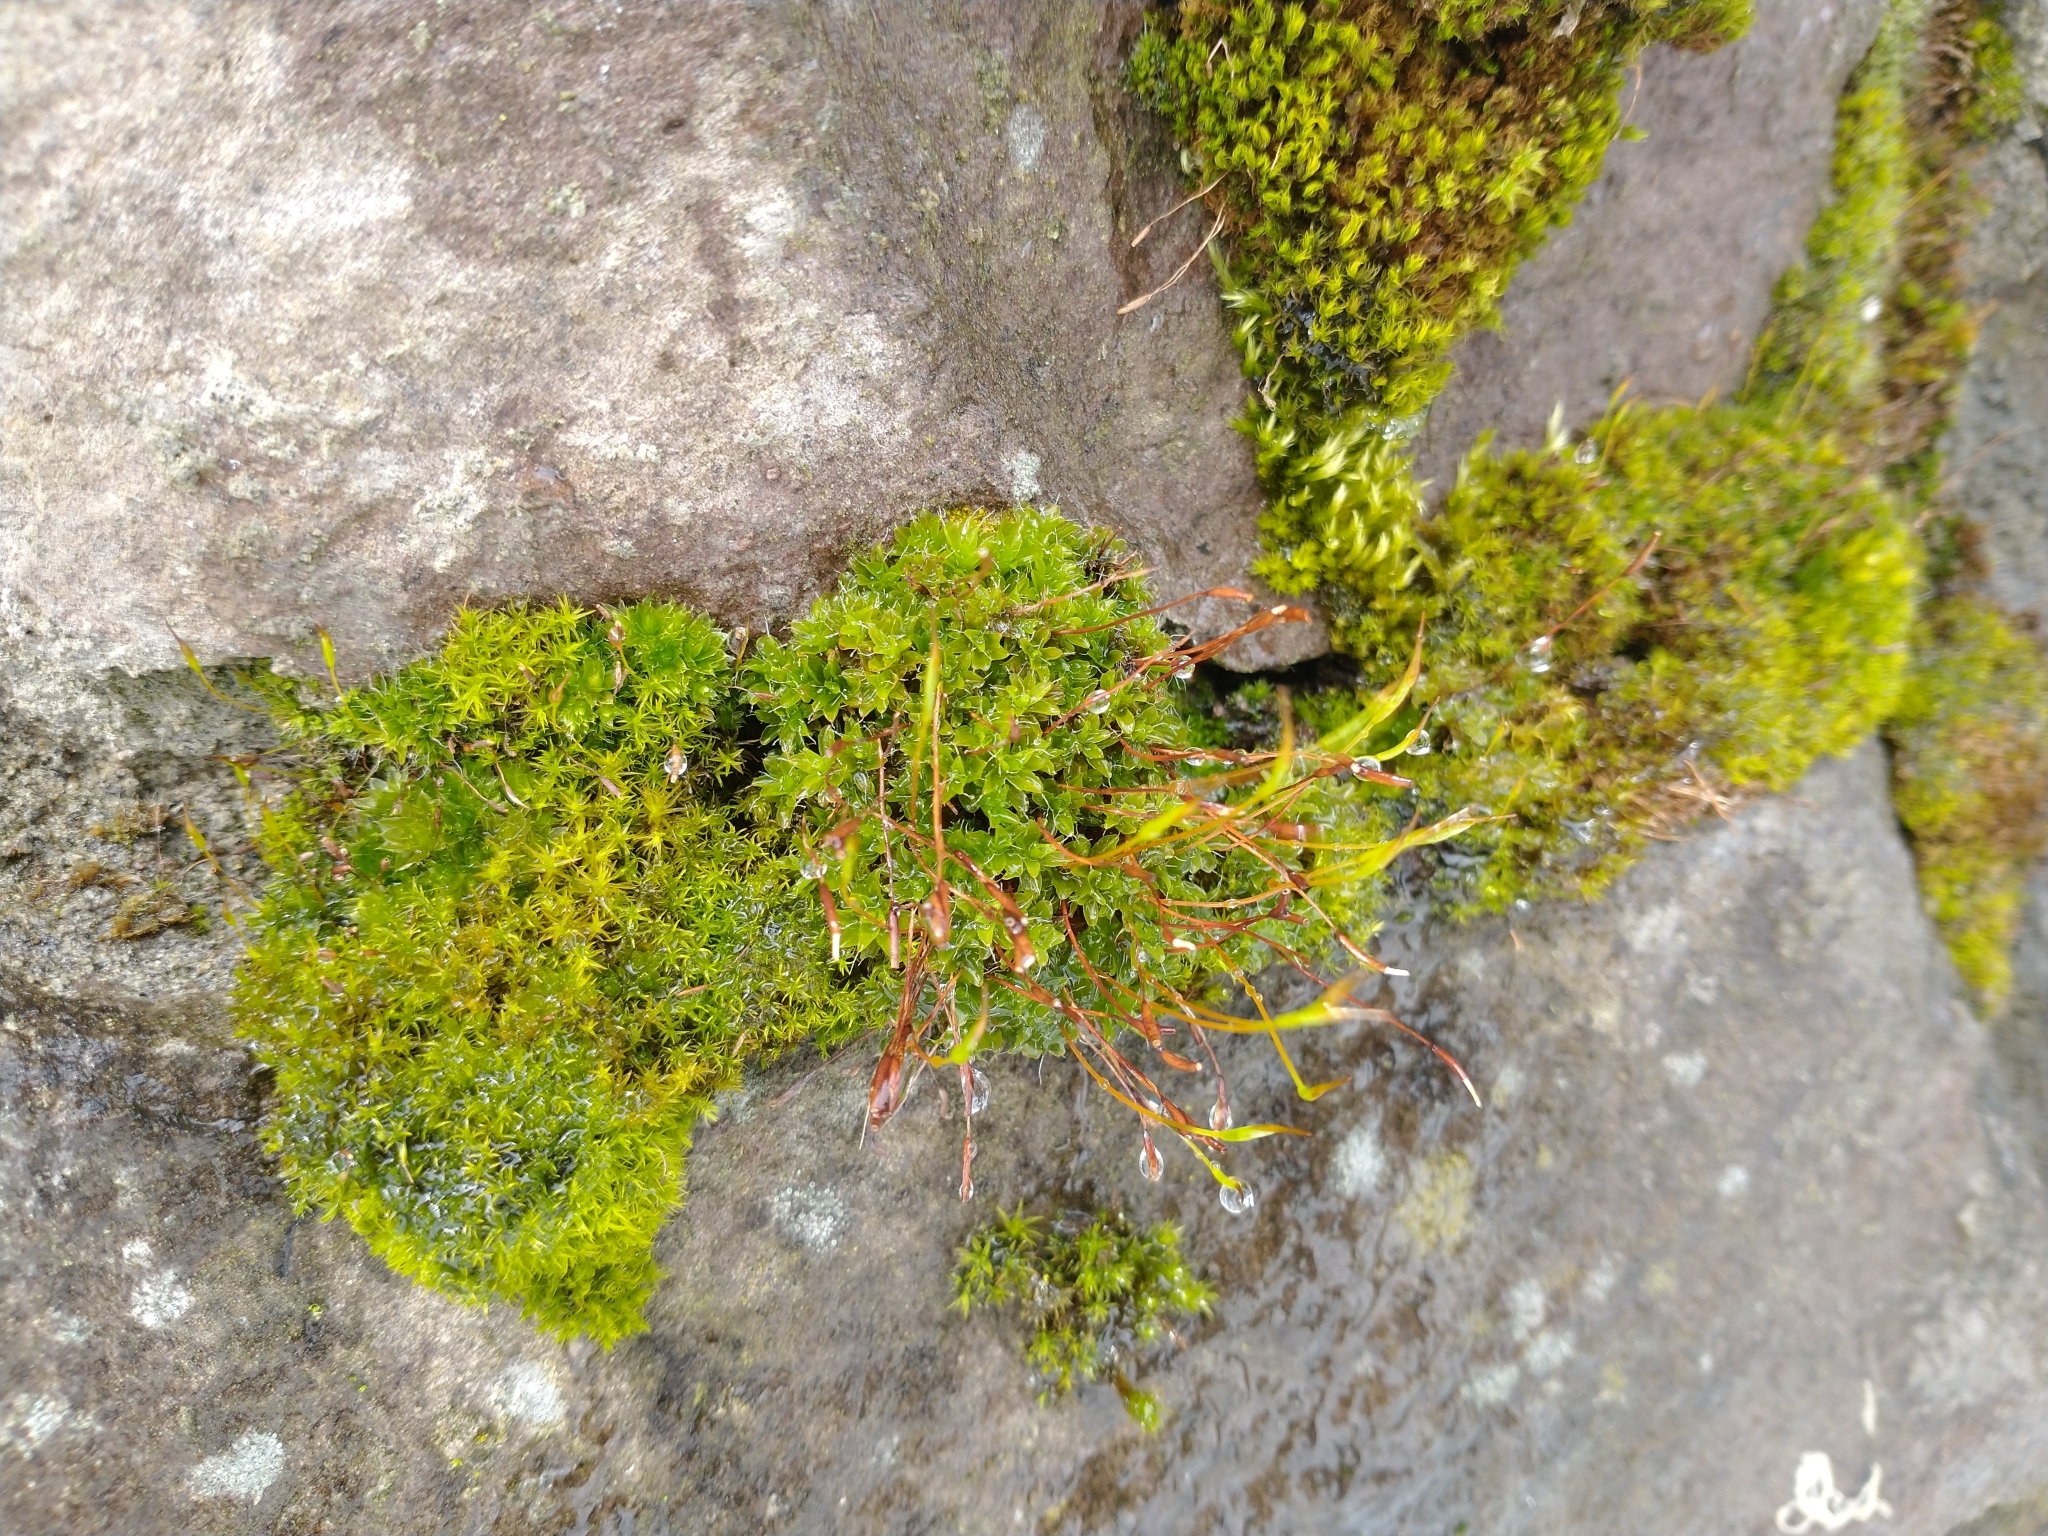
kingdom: Plantae
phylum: Bryophyta
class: Bryopsida
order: Pottiales
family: Pottiaceae
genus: Tortula
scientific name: Tortula muralis
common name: Wall screw-moss
